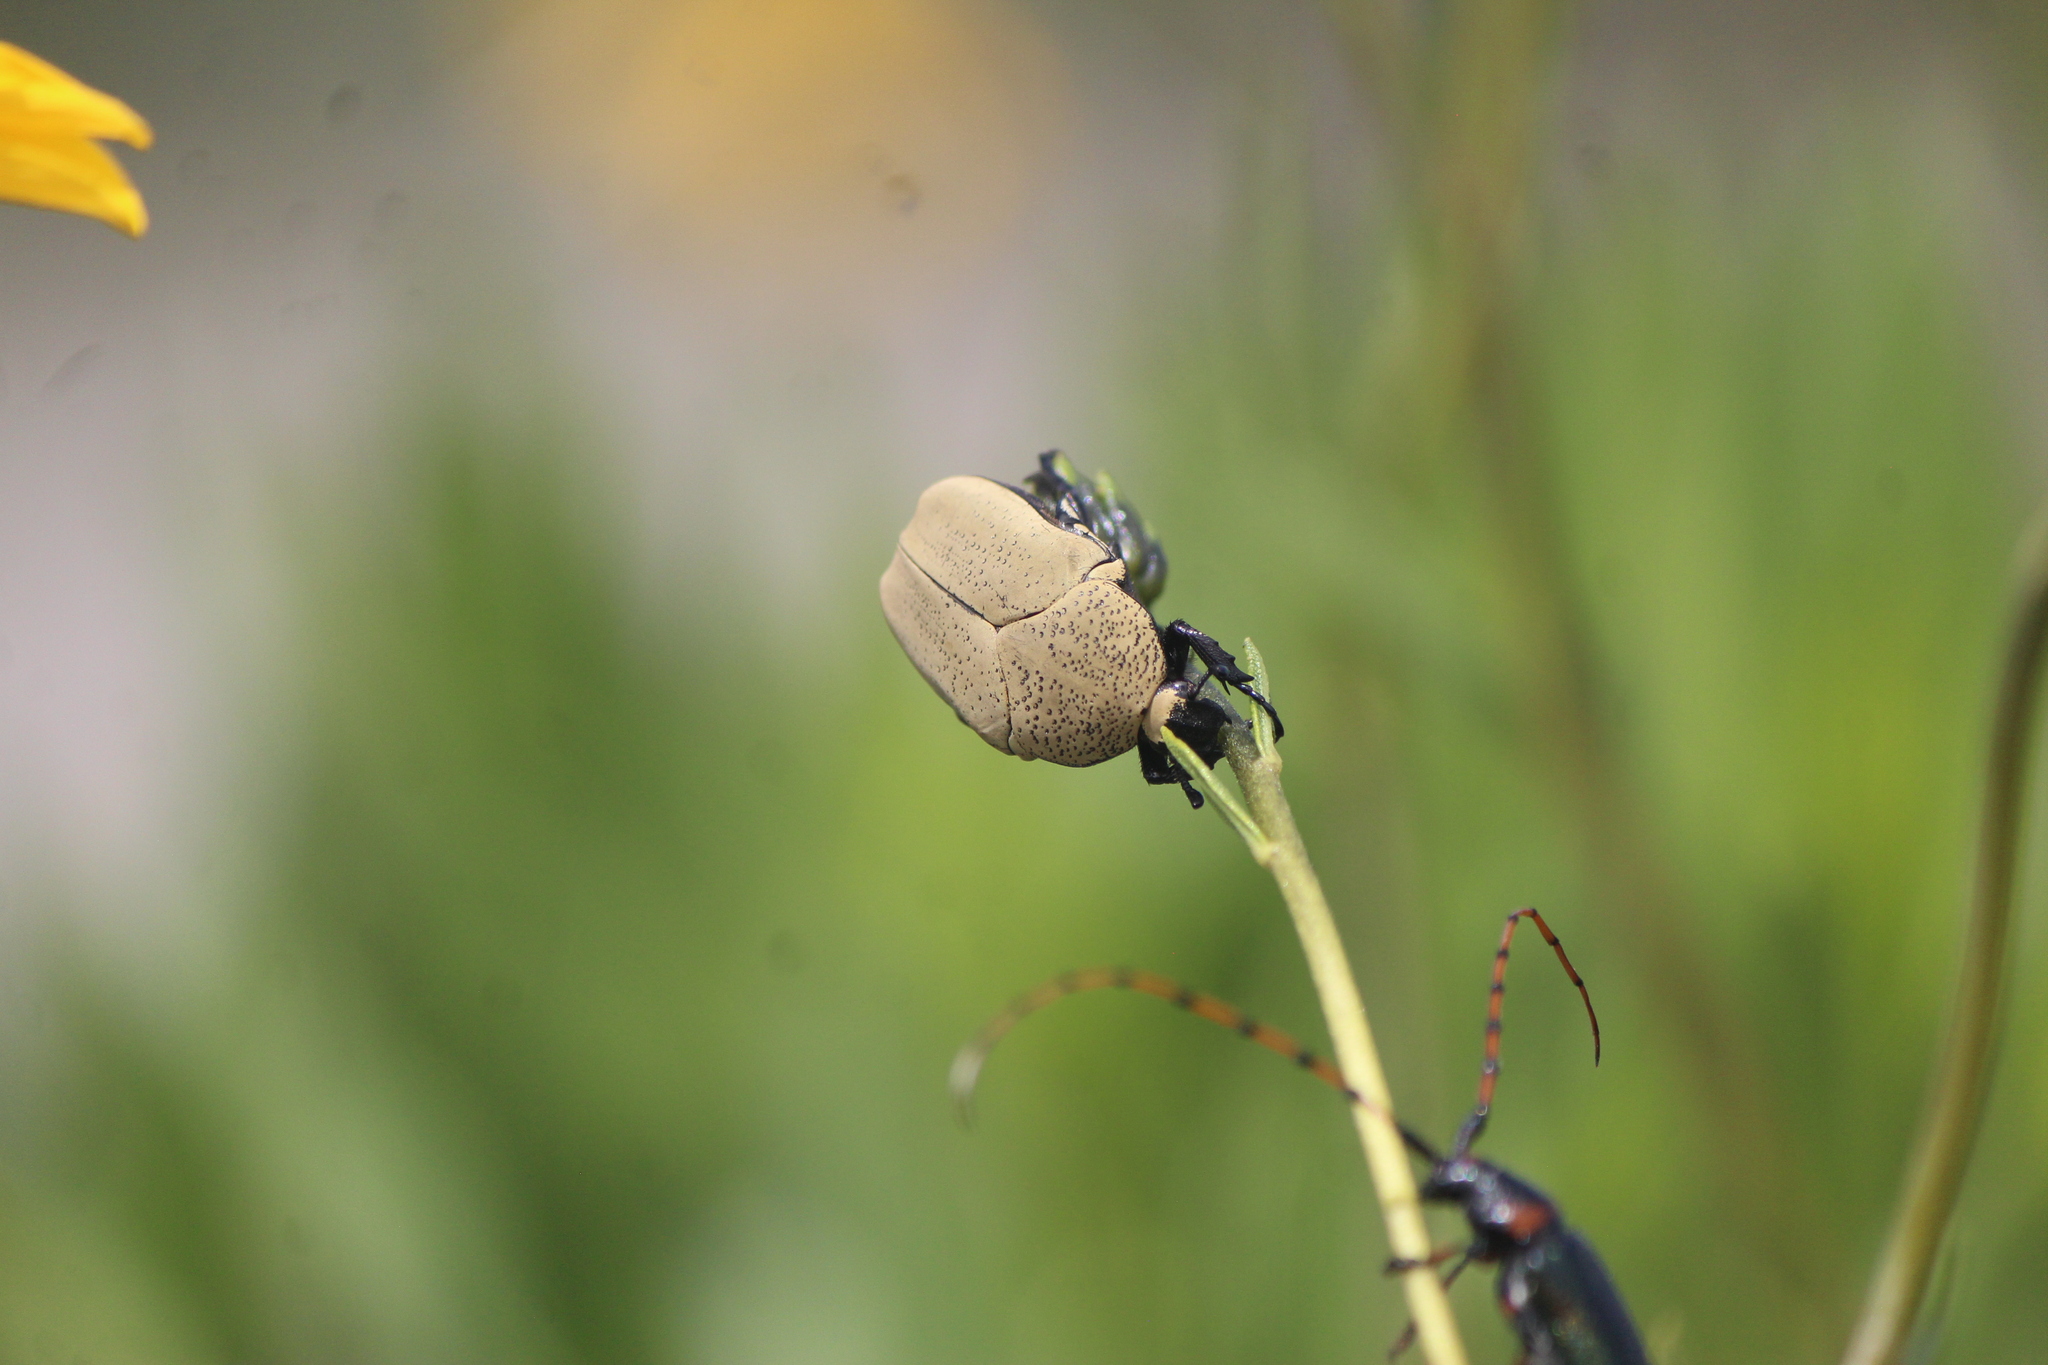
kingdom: Animalia
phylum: Arthropoda
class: Insecta
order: Coleoptera
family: Scarabaeidae
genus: Hologymnetis
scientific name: Hologymnetis cinerea
